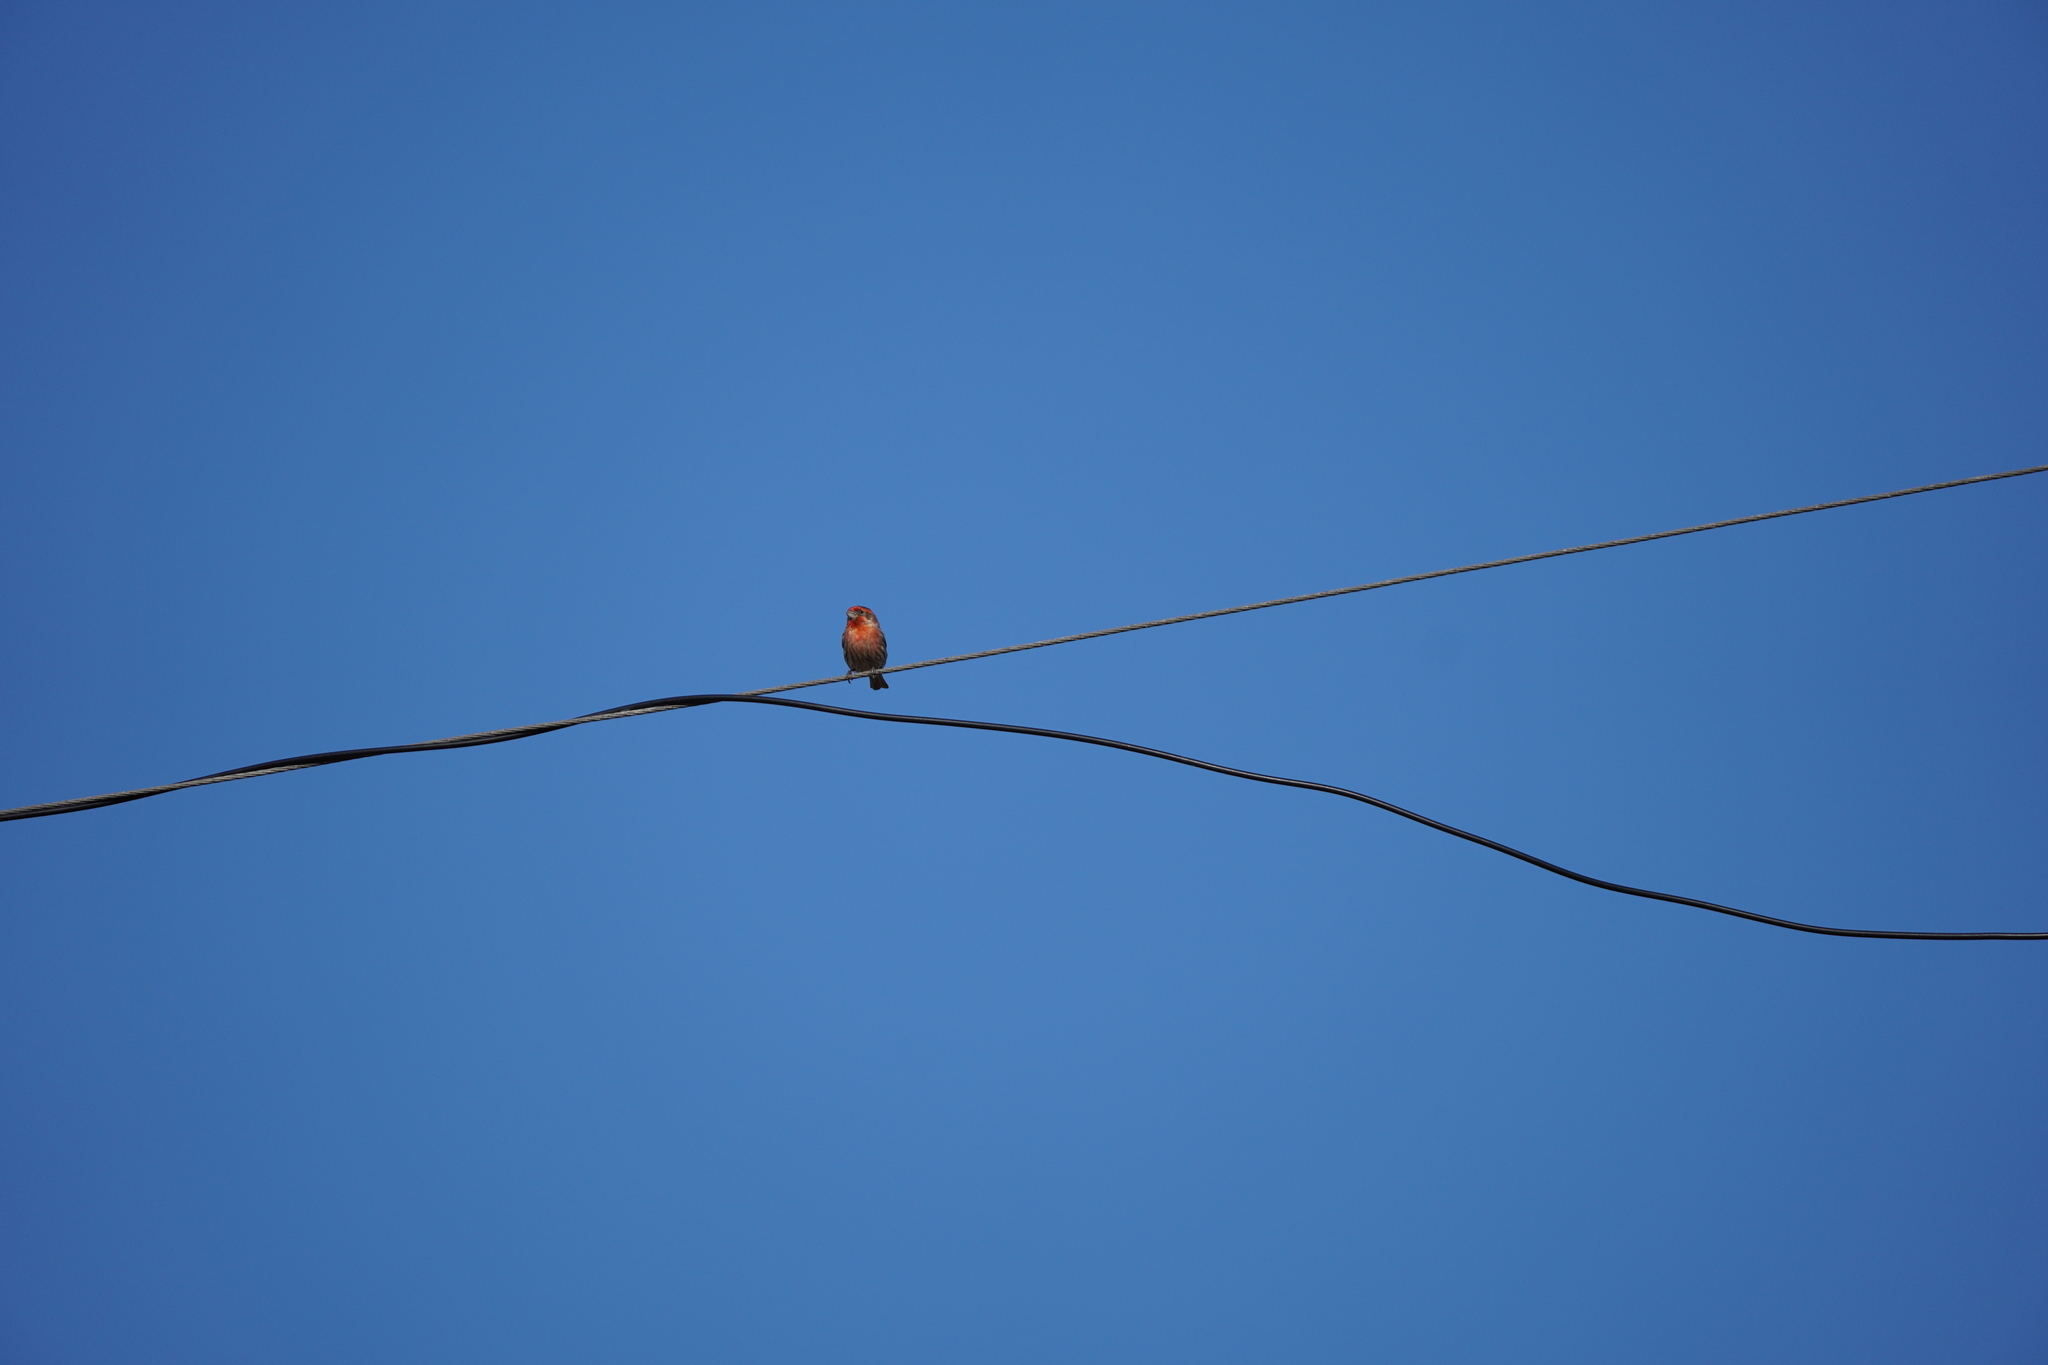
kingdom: Animalia
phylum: Chordata
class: Aves
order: Passeriformes
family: Fringillidae
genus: Haemorhous
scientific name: Haemorhous mexicanus
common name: House finch
